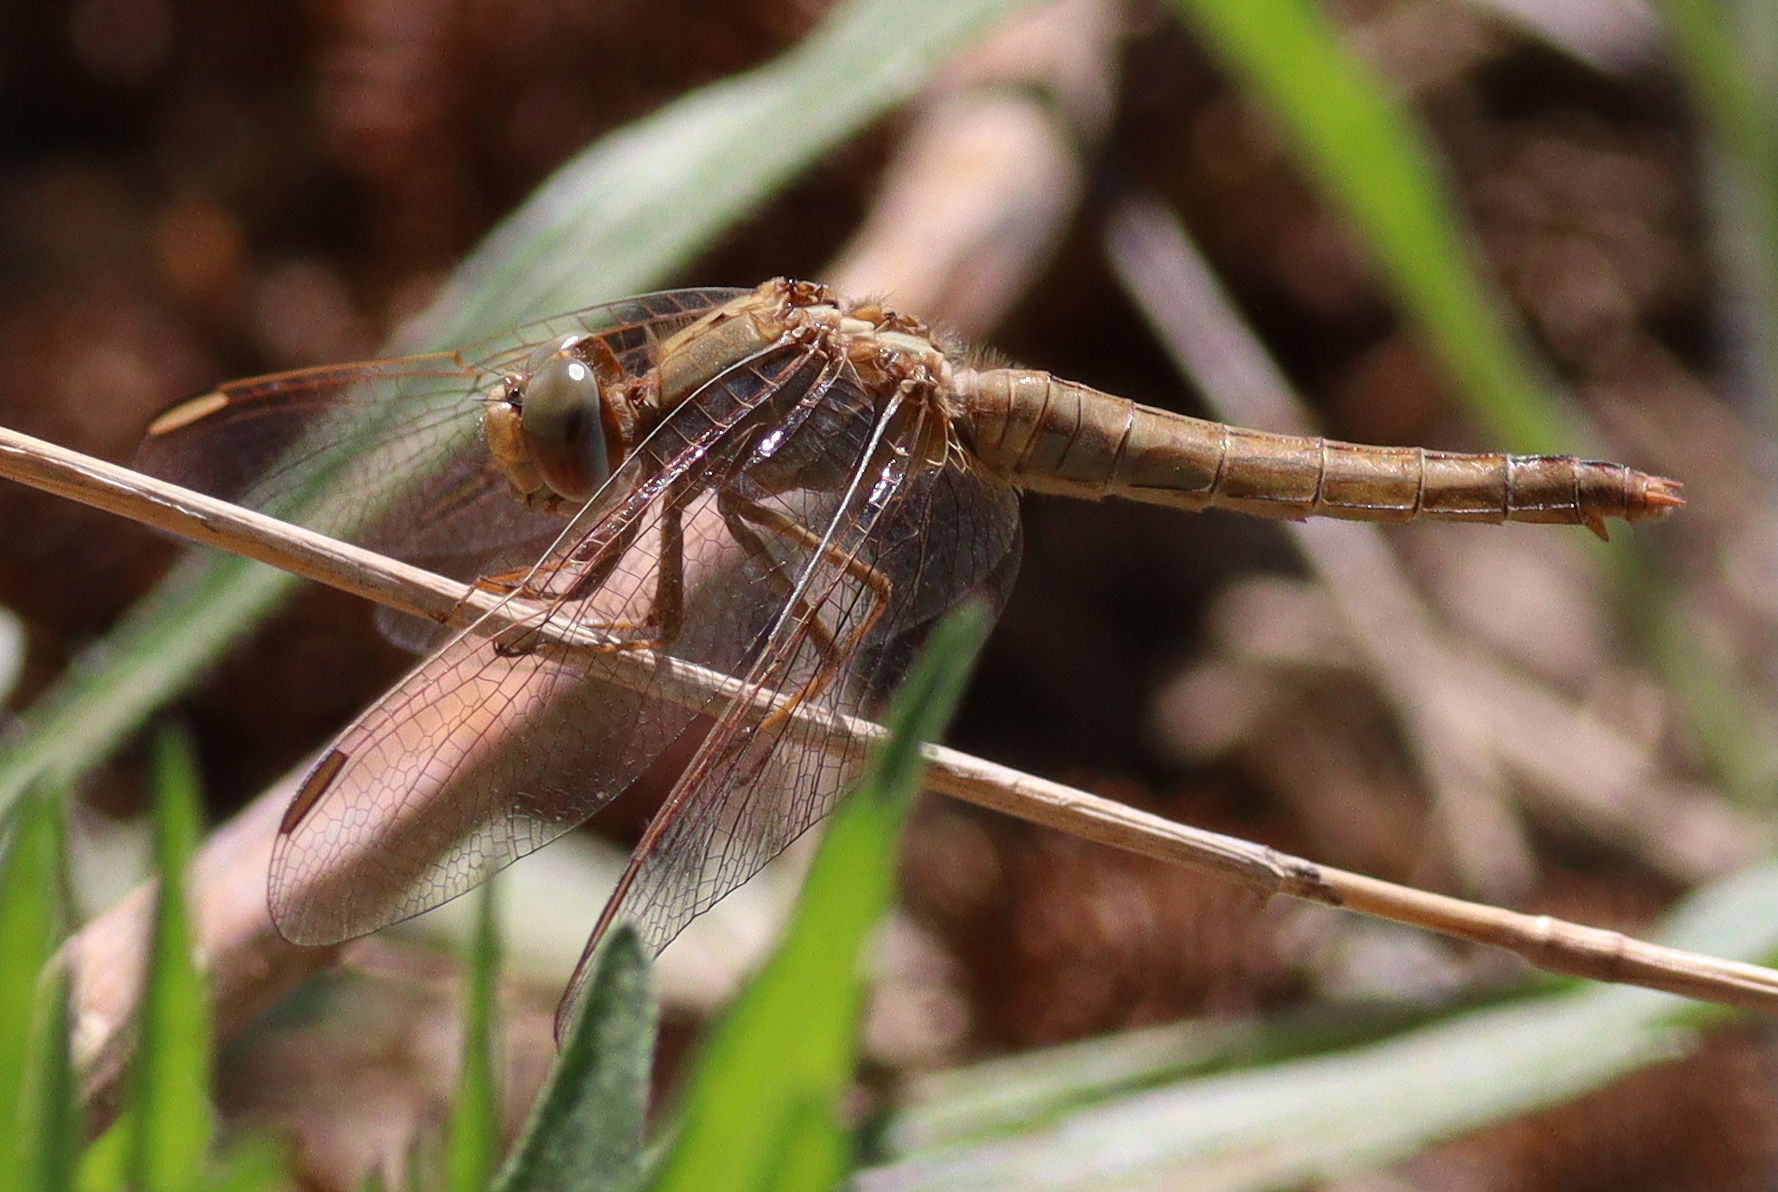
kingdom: Animalia
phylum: Arthropoda
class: Insecta
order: Odonata
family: Libellulidae
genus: Crocothemis
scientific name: Crocothemis erythraea
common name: Scarlet dragonfly
